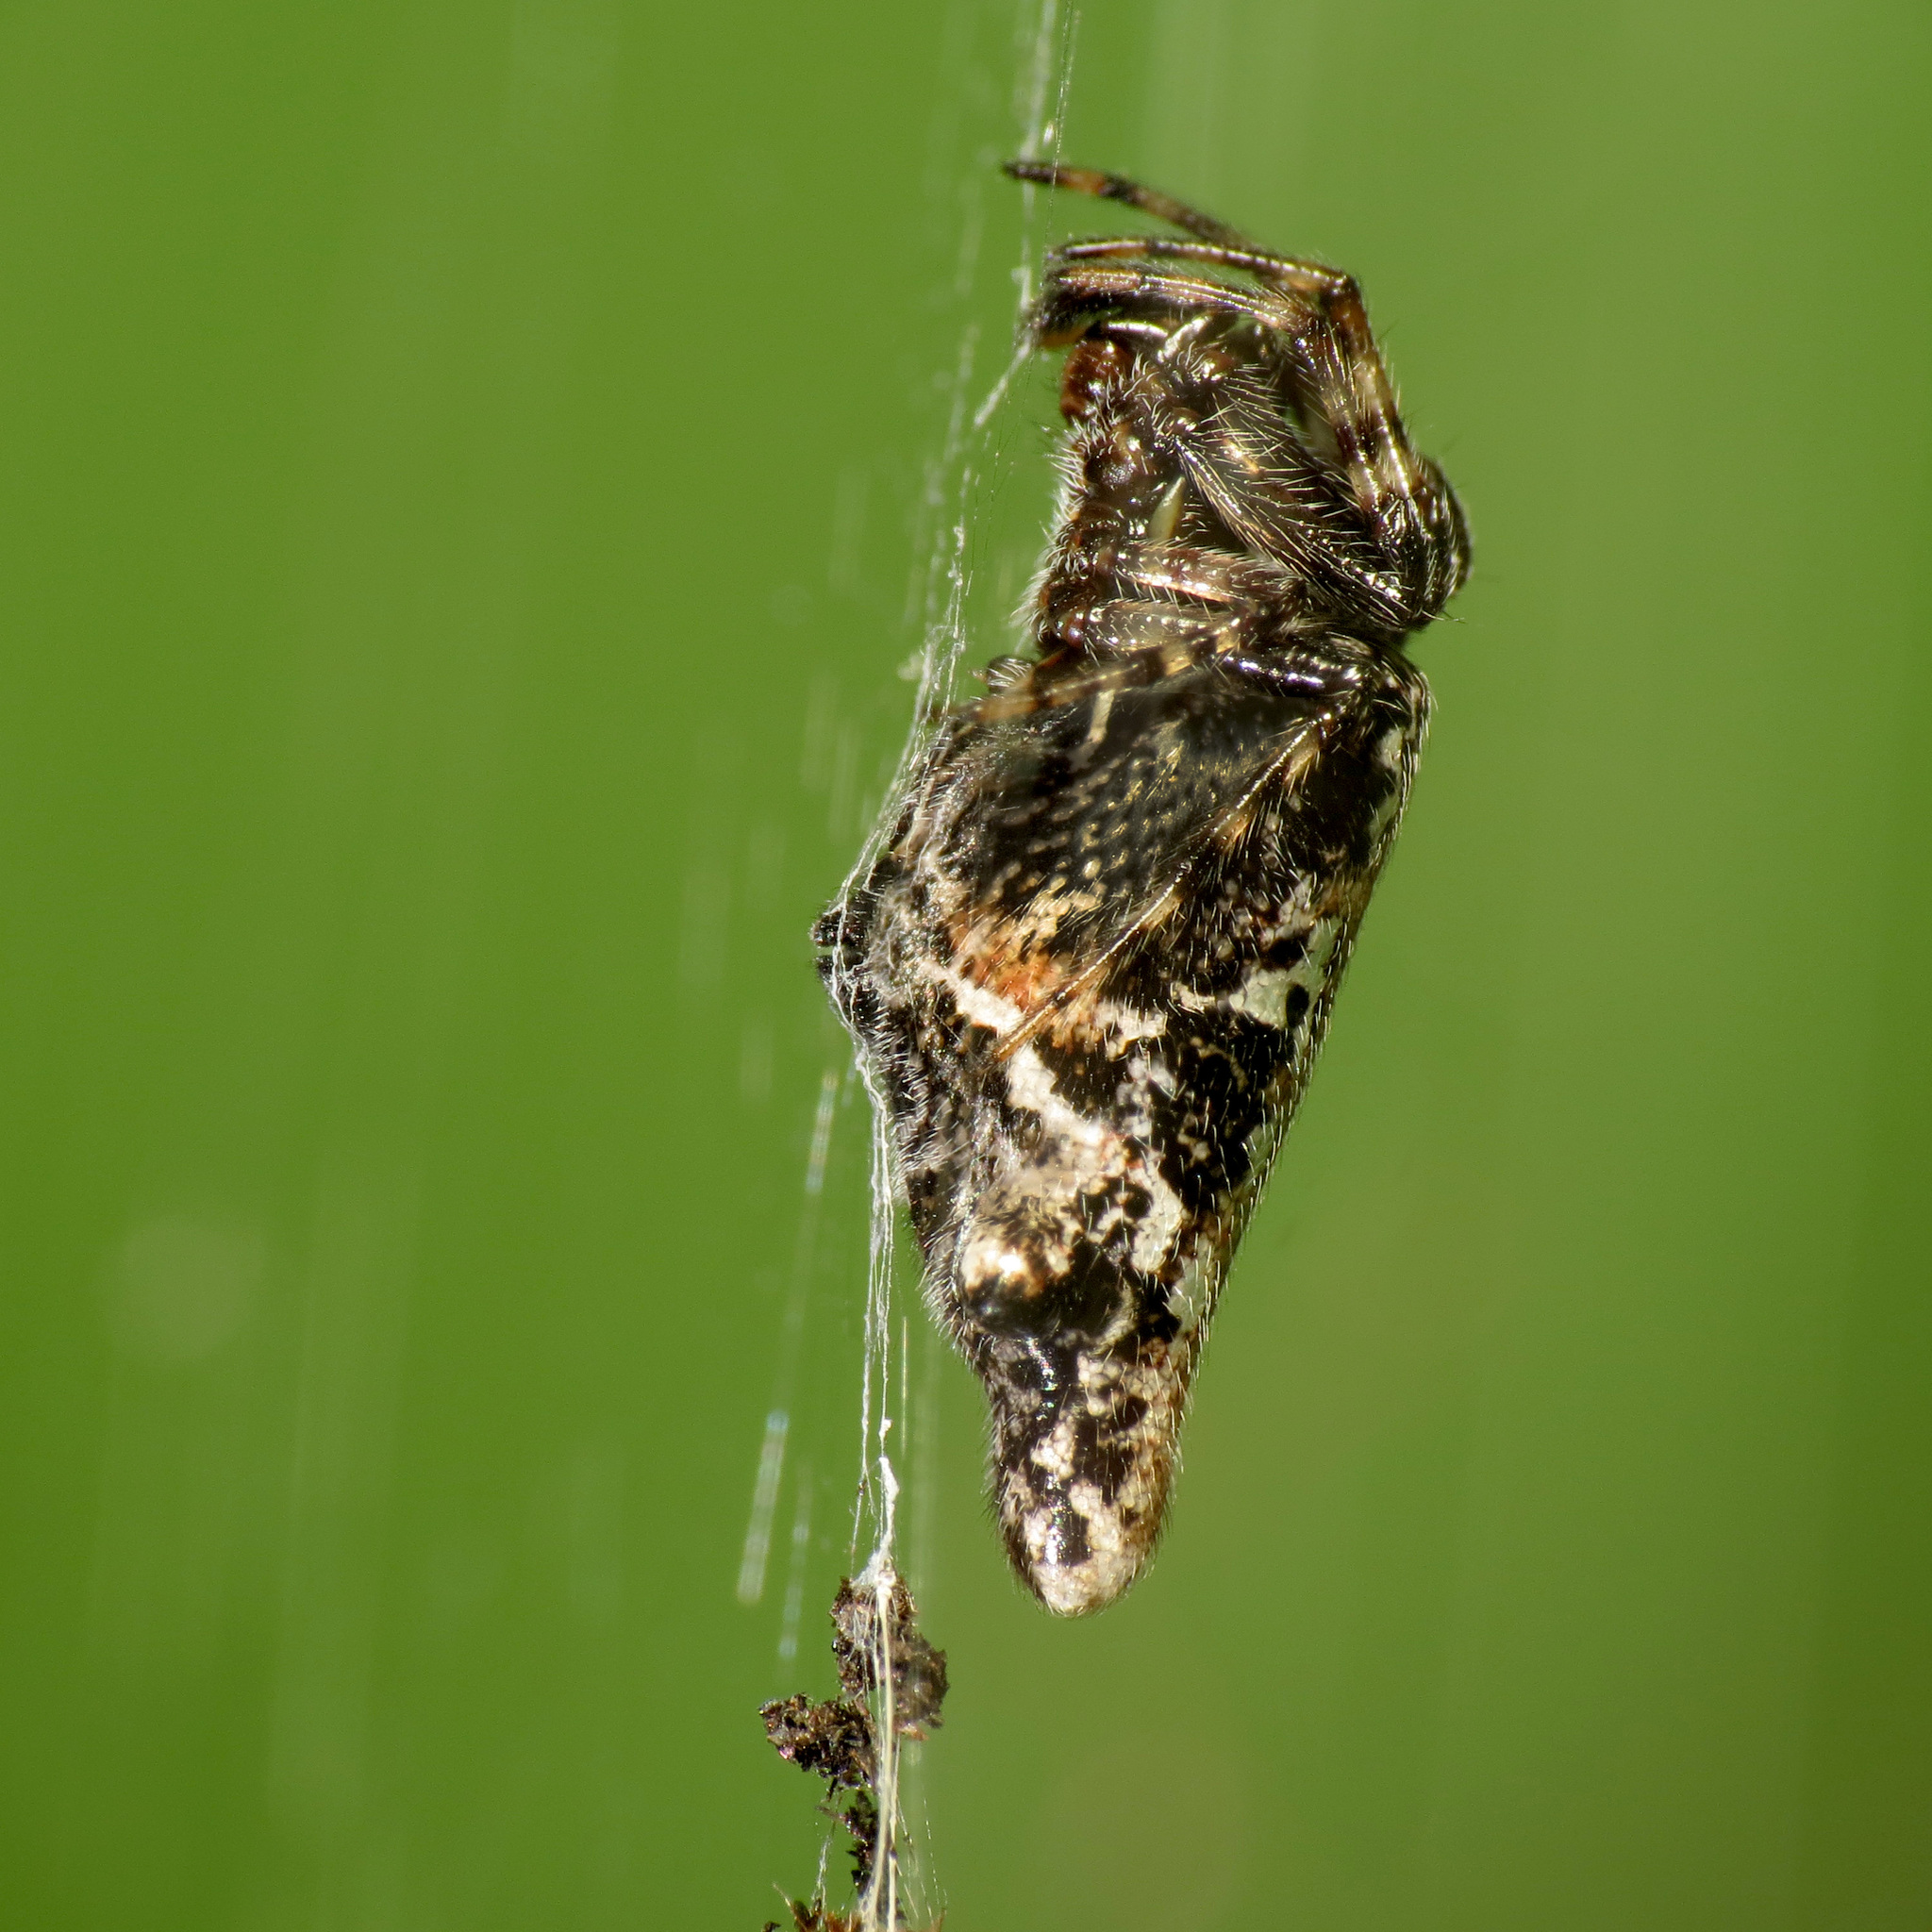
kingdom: Animalia
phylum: Arthropoda
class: Arachnida
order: Araneae
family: Araneidae
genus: Cyclosa
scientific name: Cyclosa conica
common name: Conical trashline orbweaver
